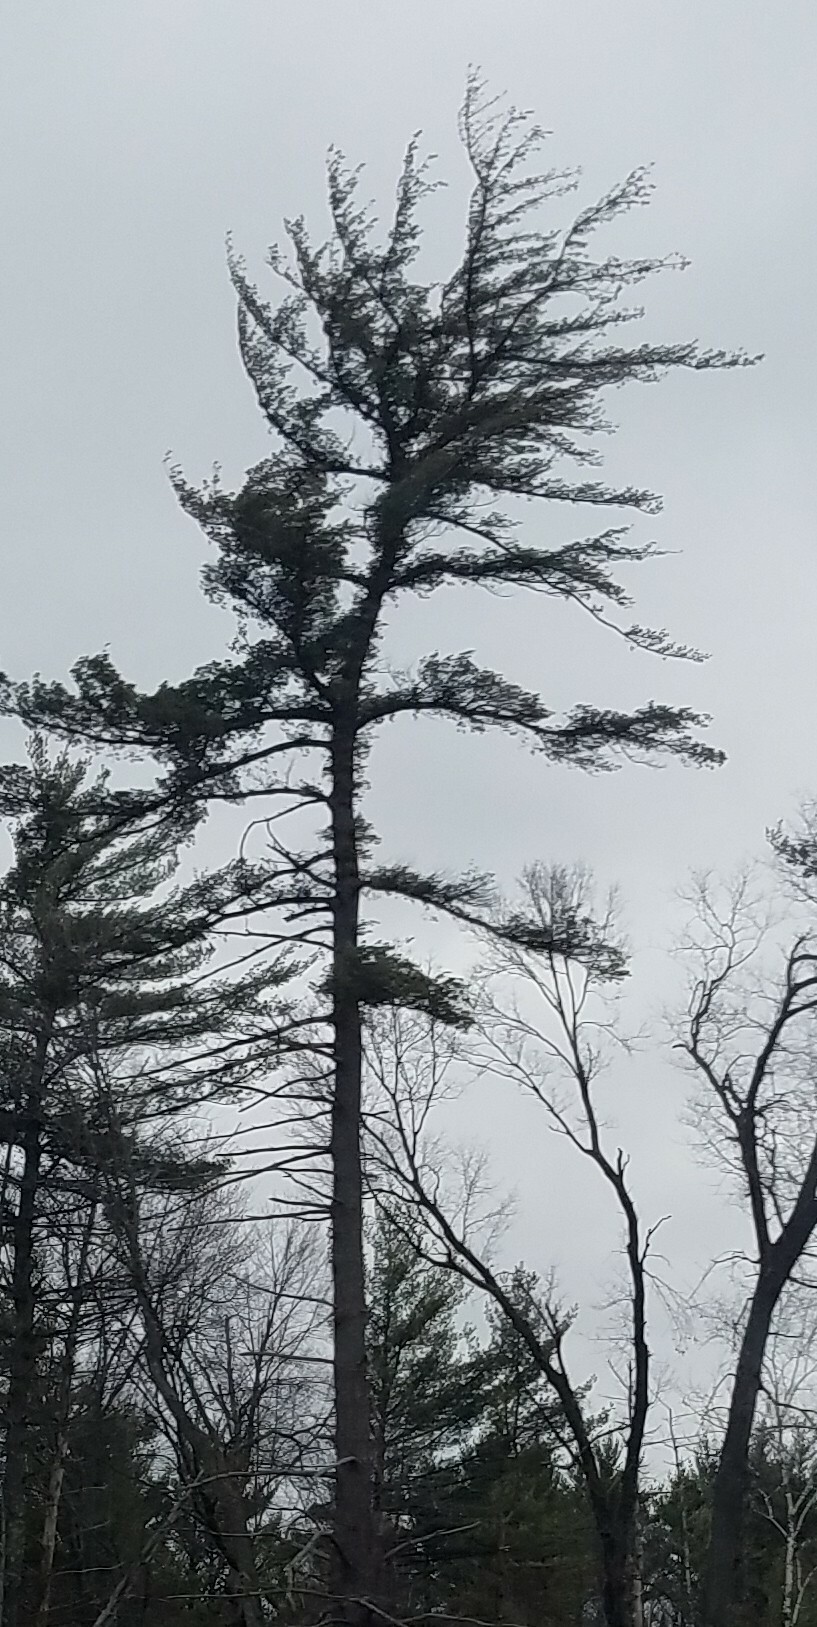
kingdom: Plantae
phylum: Tracheophyta
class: Pinopsida
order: Pinales
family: Pinaceae
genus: Pinus
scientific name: Pinus strobus
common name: Weymouth pine
